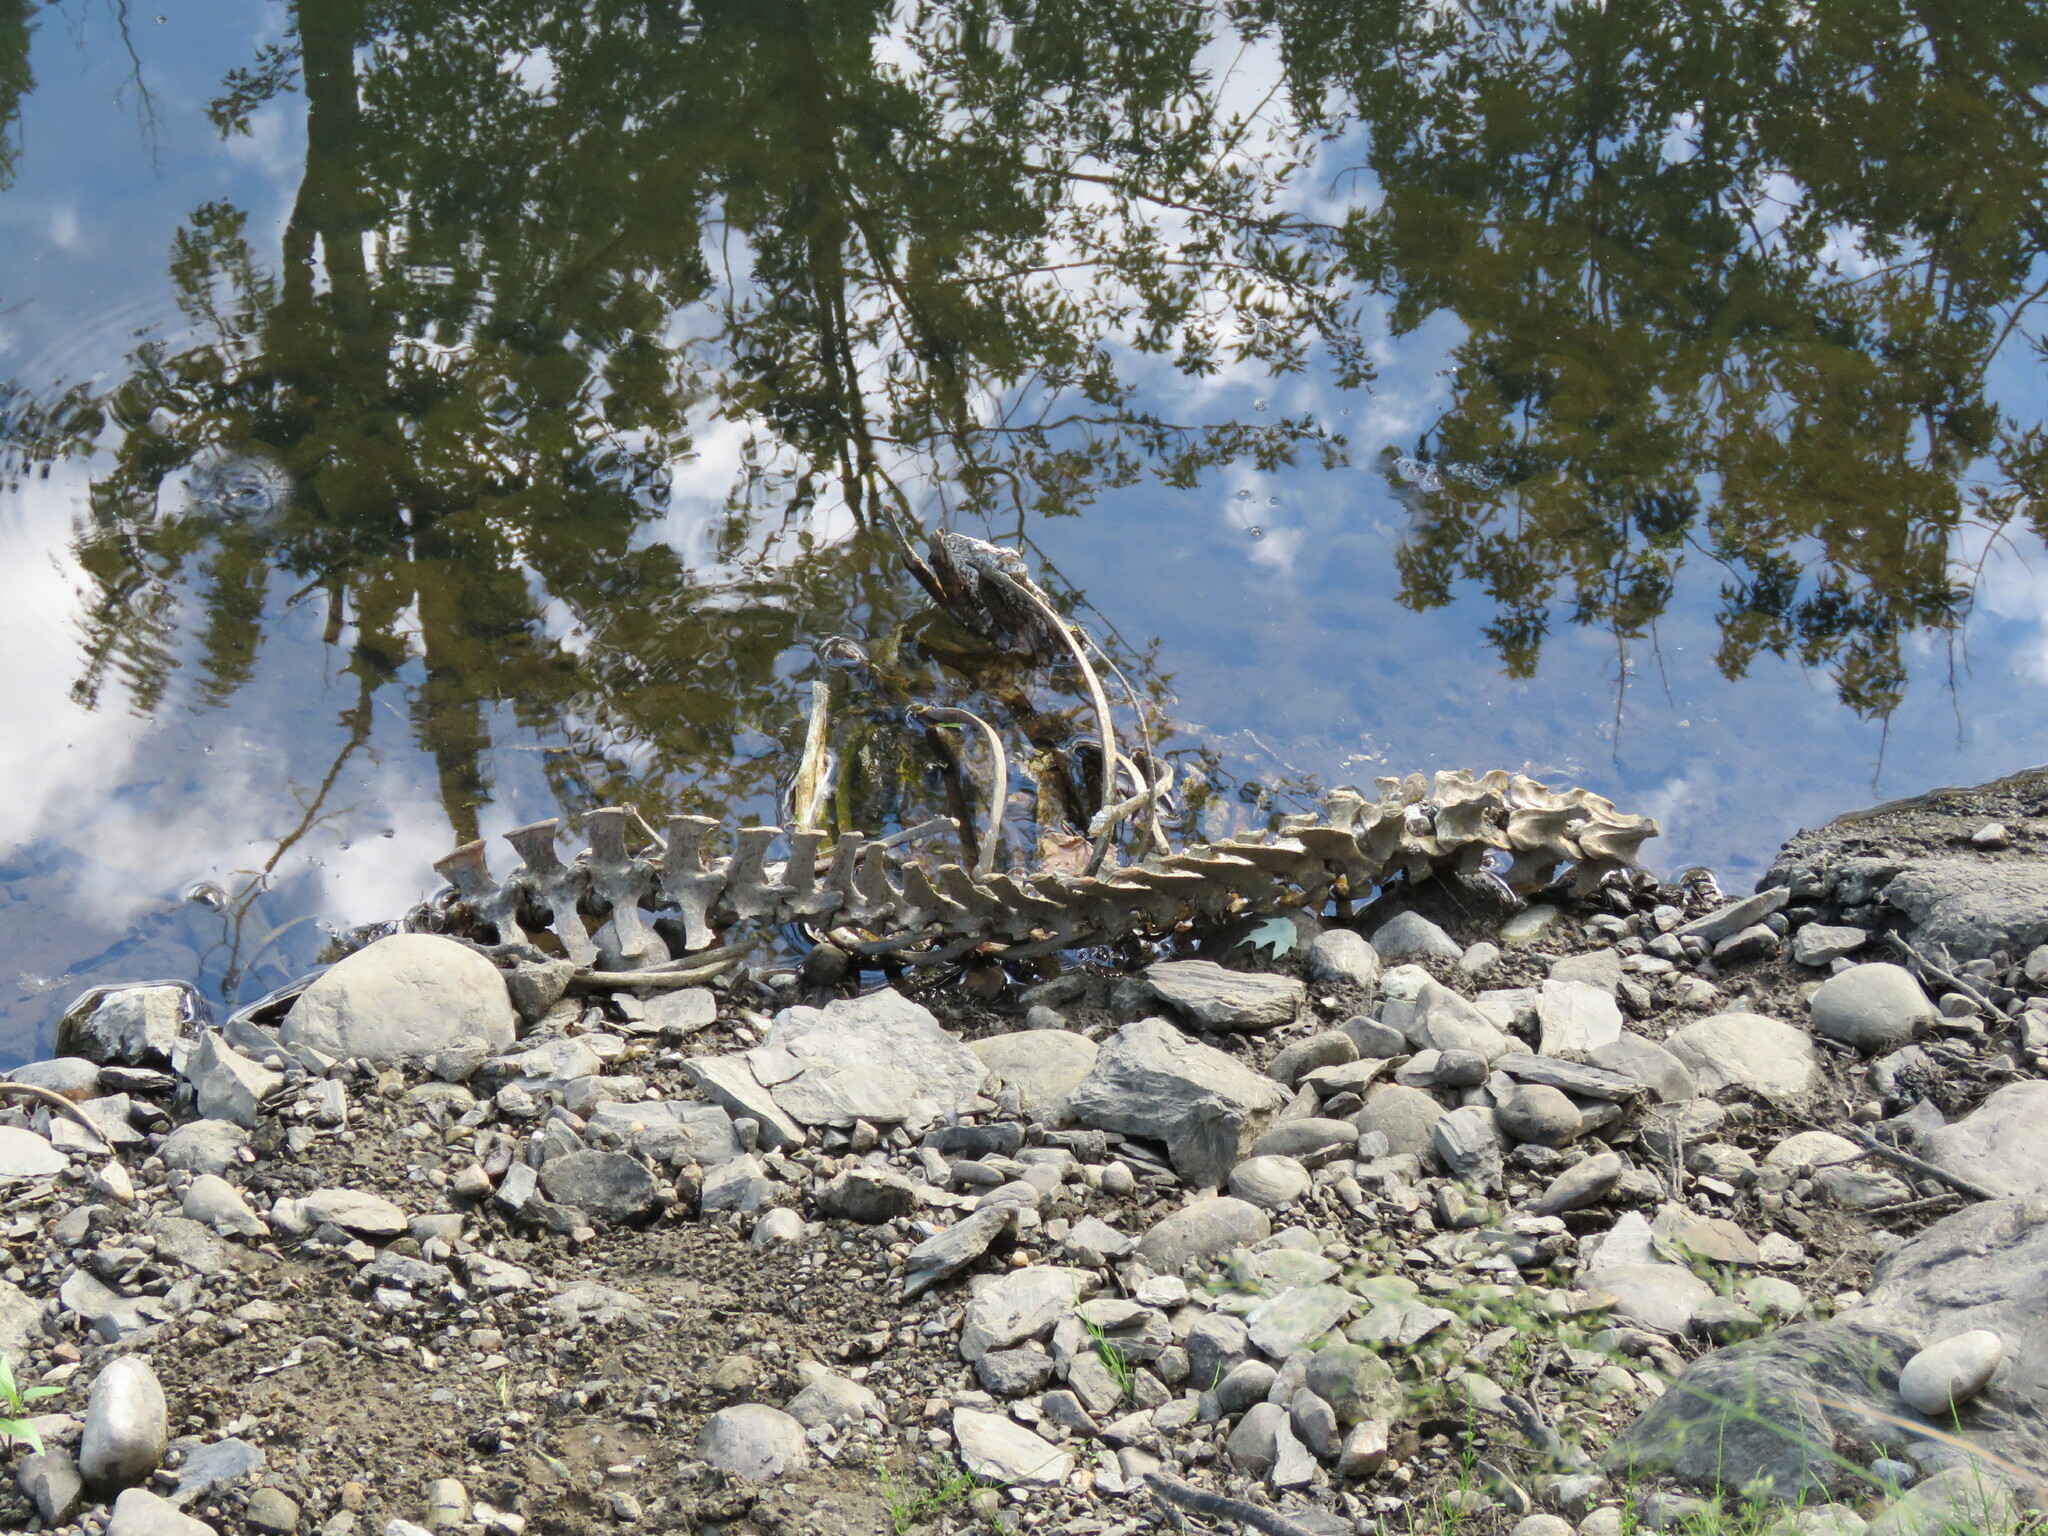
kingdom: Animalia
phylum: Chordata
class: Mammalia
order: Artiodactyla
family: Cervidae
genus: Odocoileus
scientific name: Odocoileus virginianus
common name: White-tailed deer
